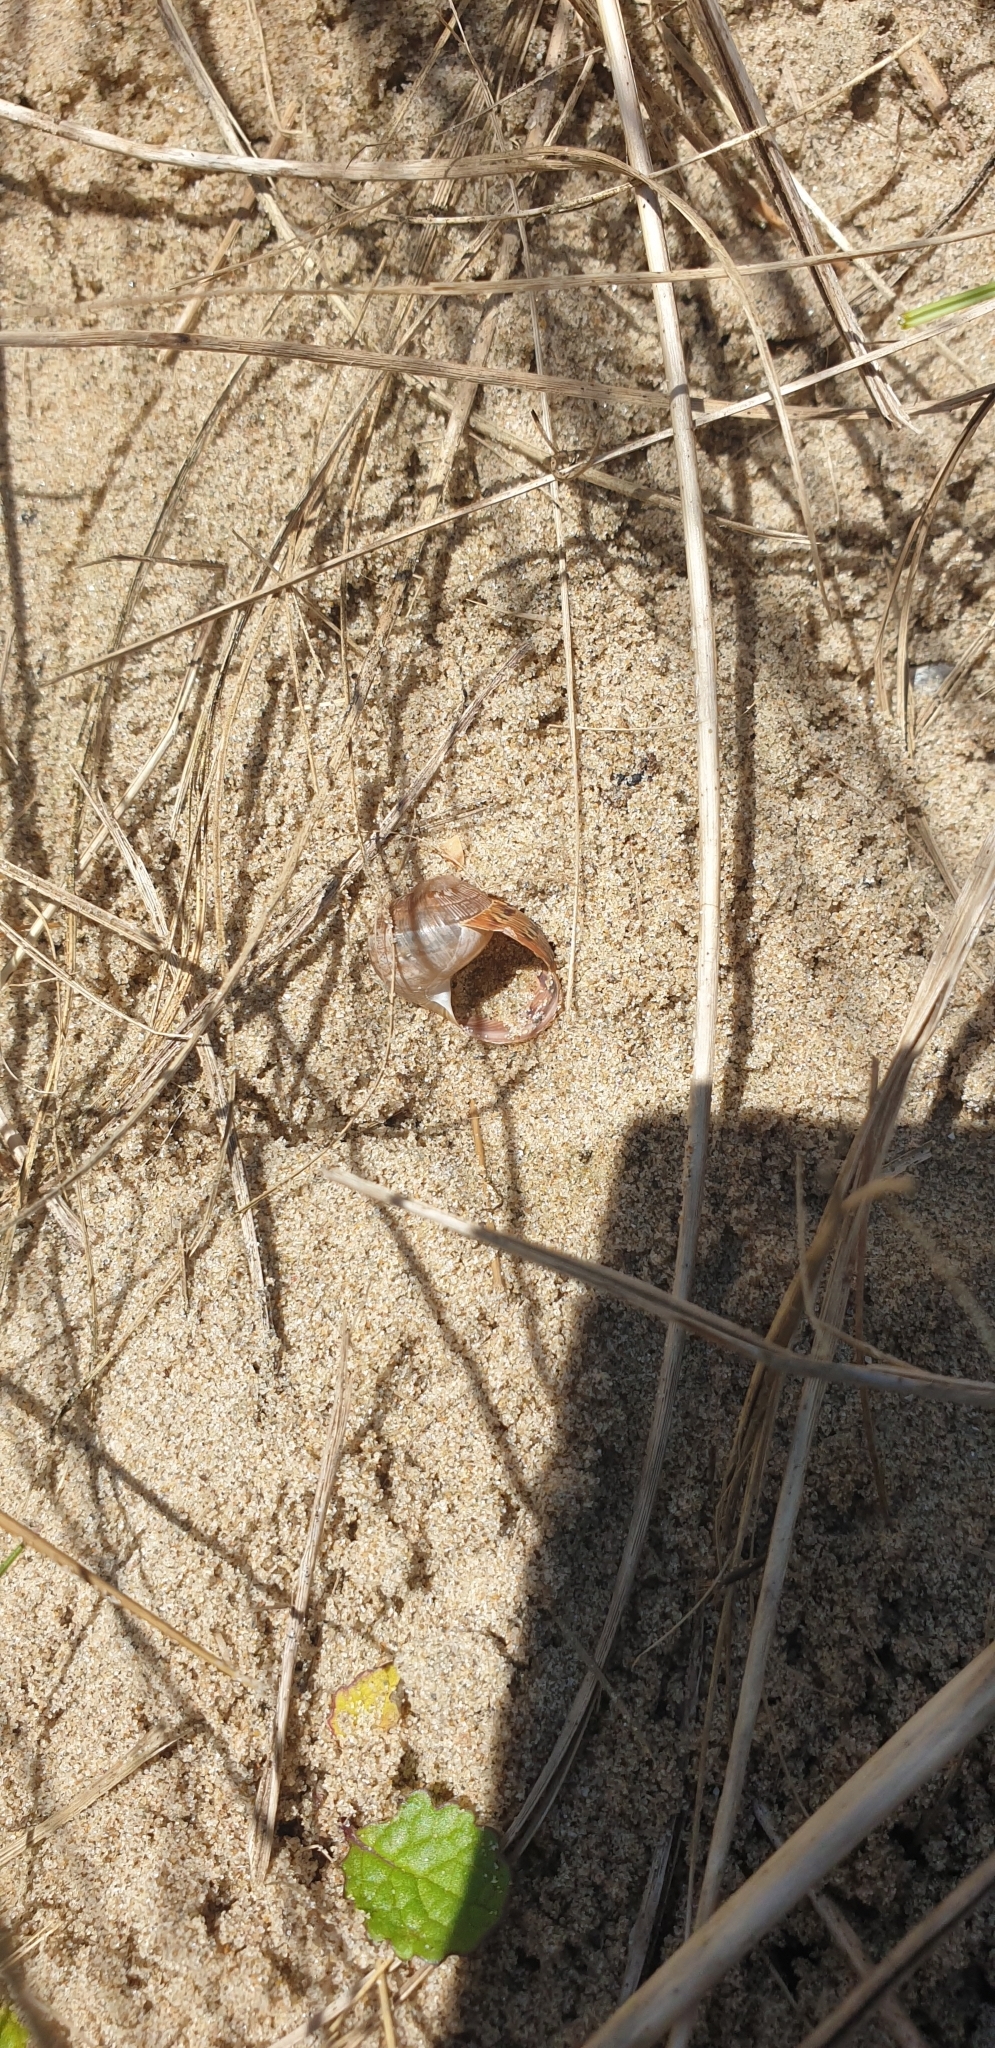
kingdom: Animalia
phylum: Mollusca
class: Gastropoda
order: Stylommatophora
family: Helicidae
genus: Cornu
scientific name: Cornu aspersum
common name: Brown garden snail
